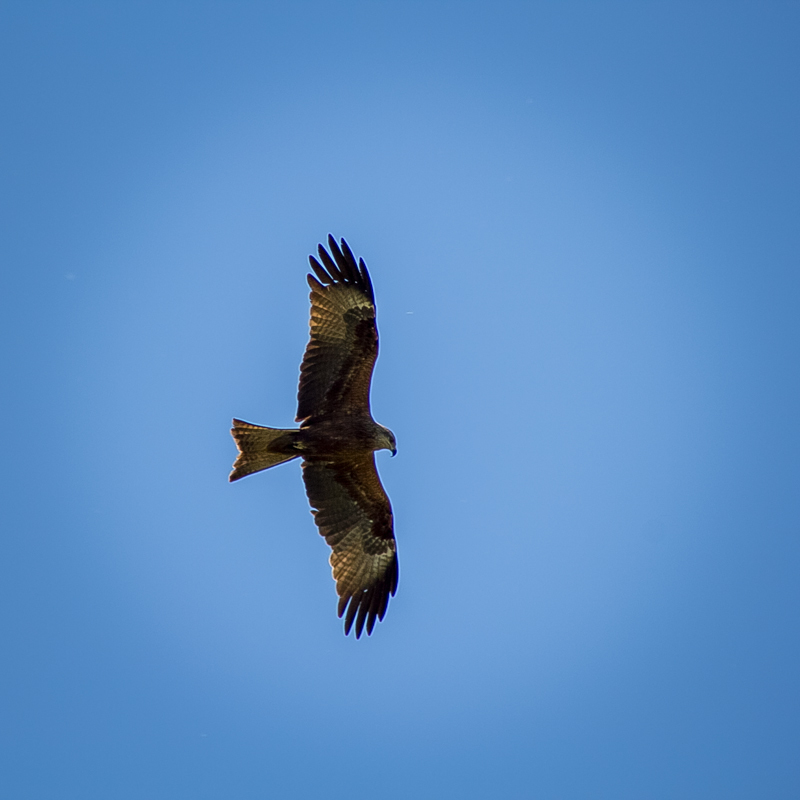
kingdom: Animalia
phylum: Chordata
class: Aves
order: Accipitriformes
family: Accipitridae
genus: Milvus
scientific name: Milvus migrans
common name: Black kite
